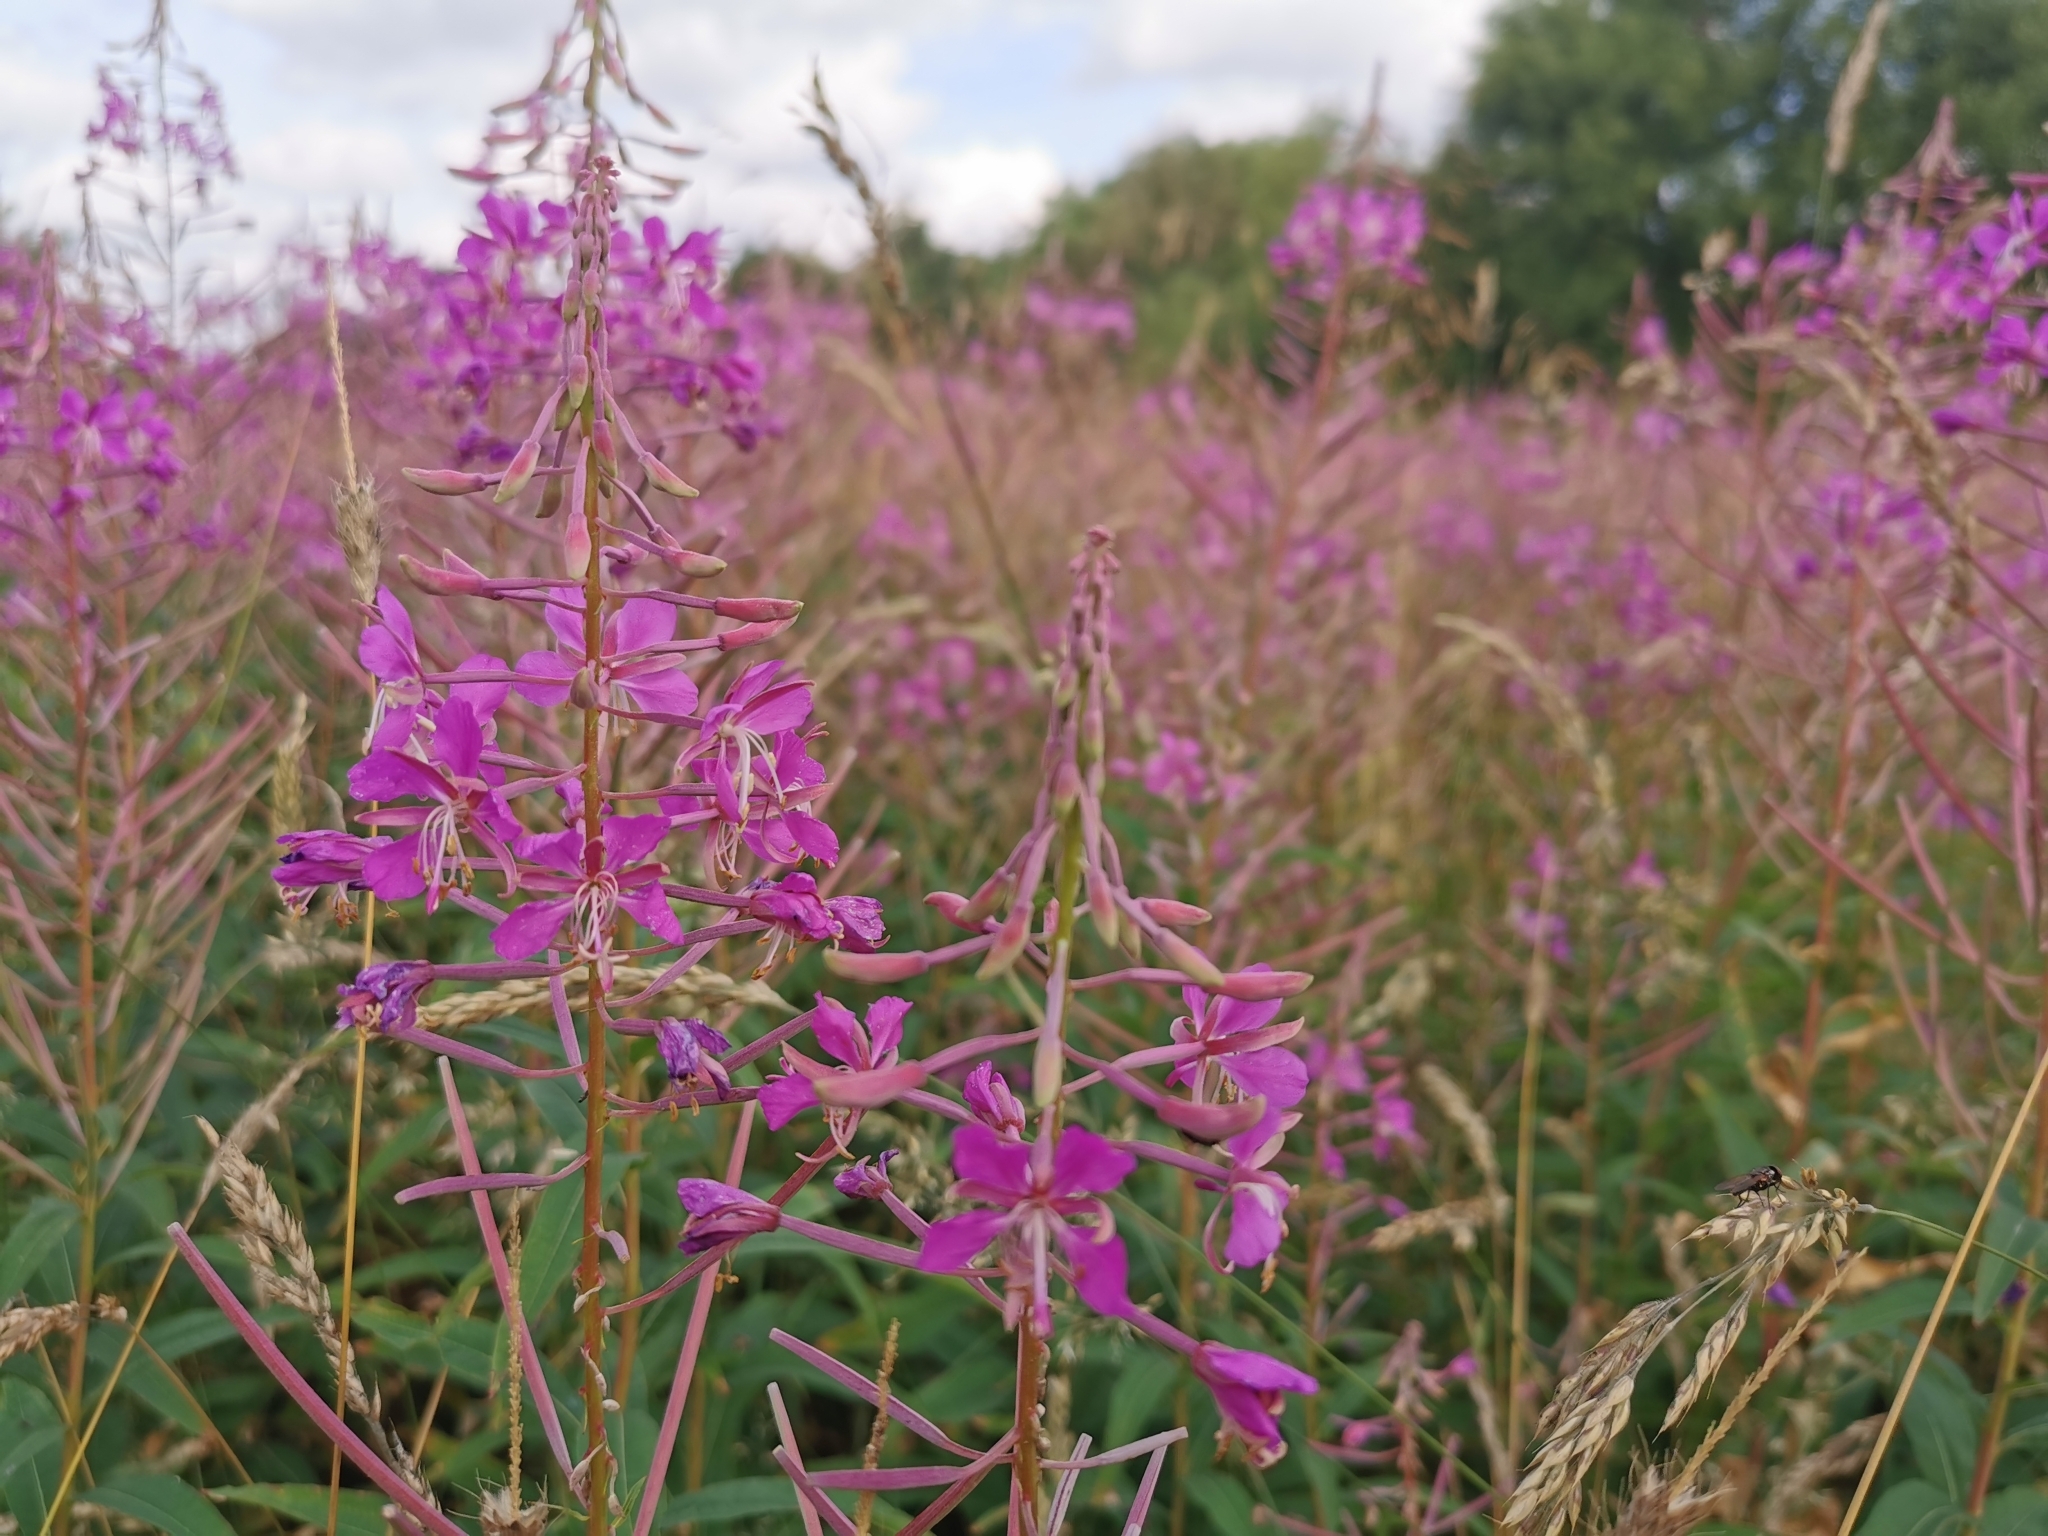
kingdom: Plantae
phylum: Tracheophyta
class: Magnoliopsida
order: Myrtales
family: Onagraceae
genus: Chamaenerion
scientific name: Chamaenerion angustifolium
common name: Fireweed
